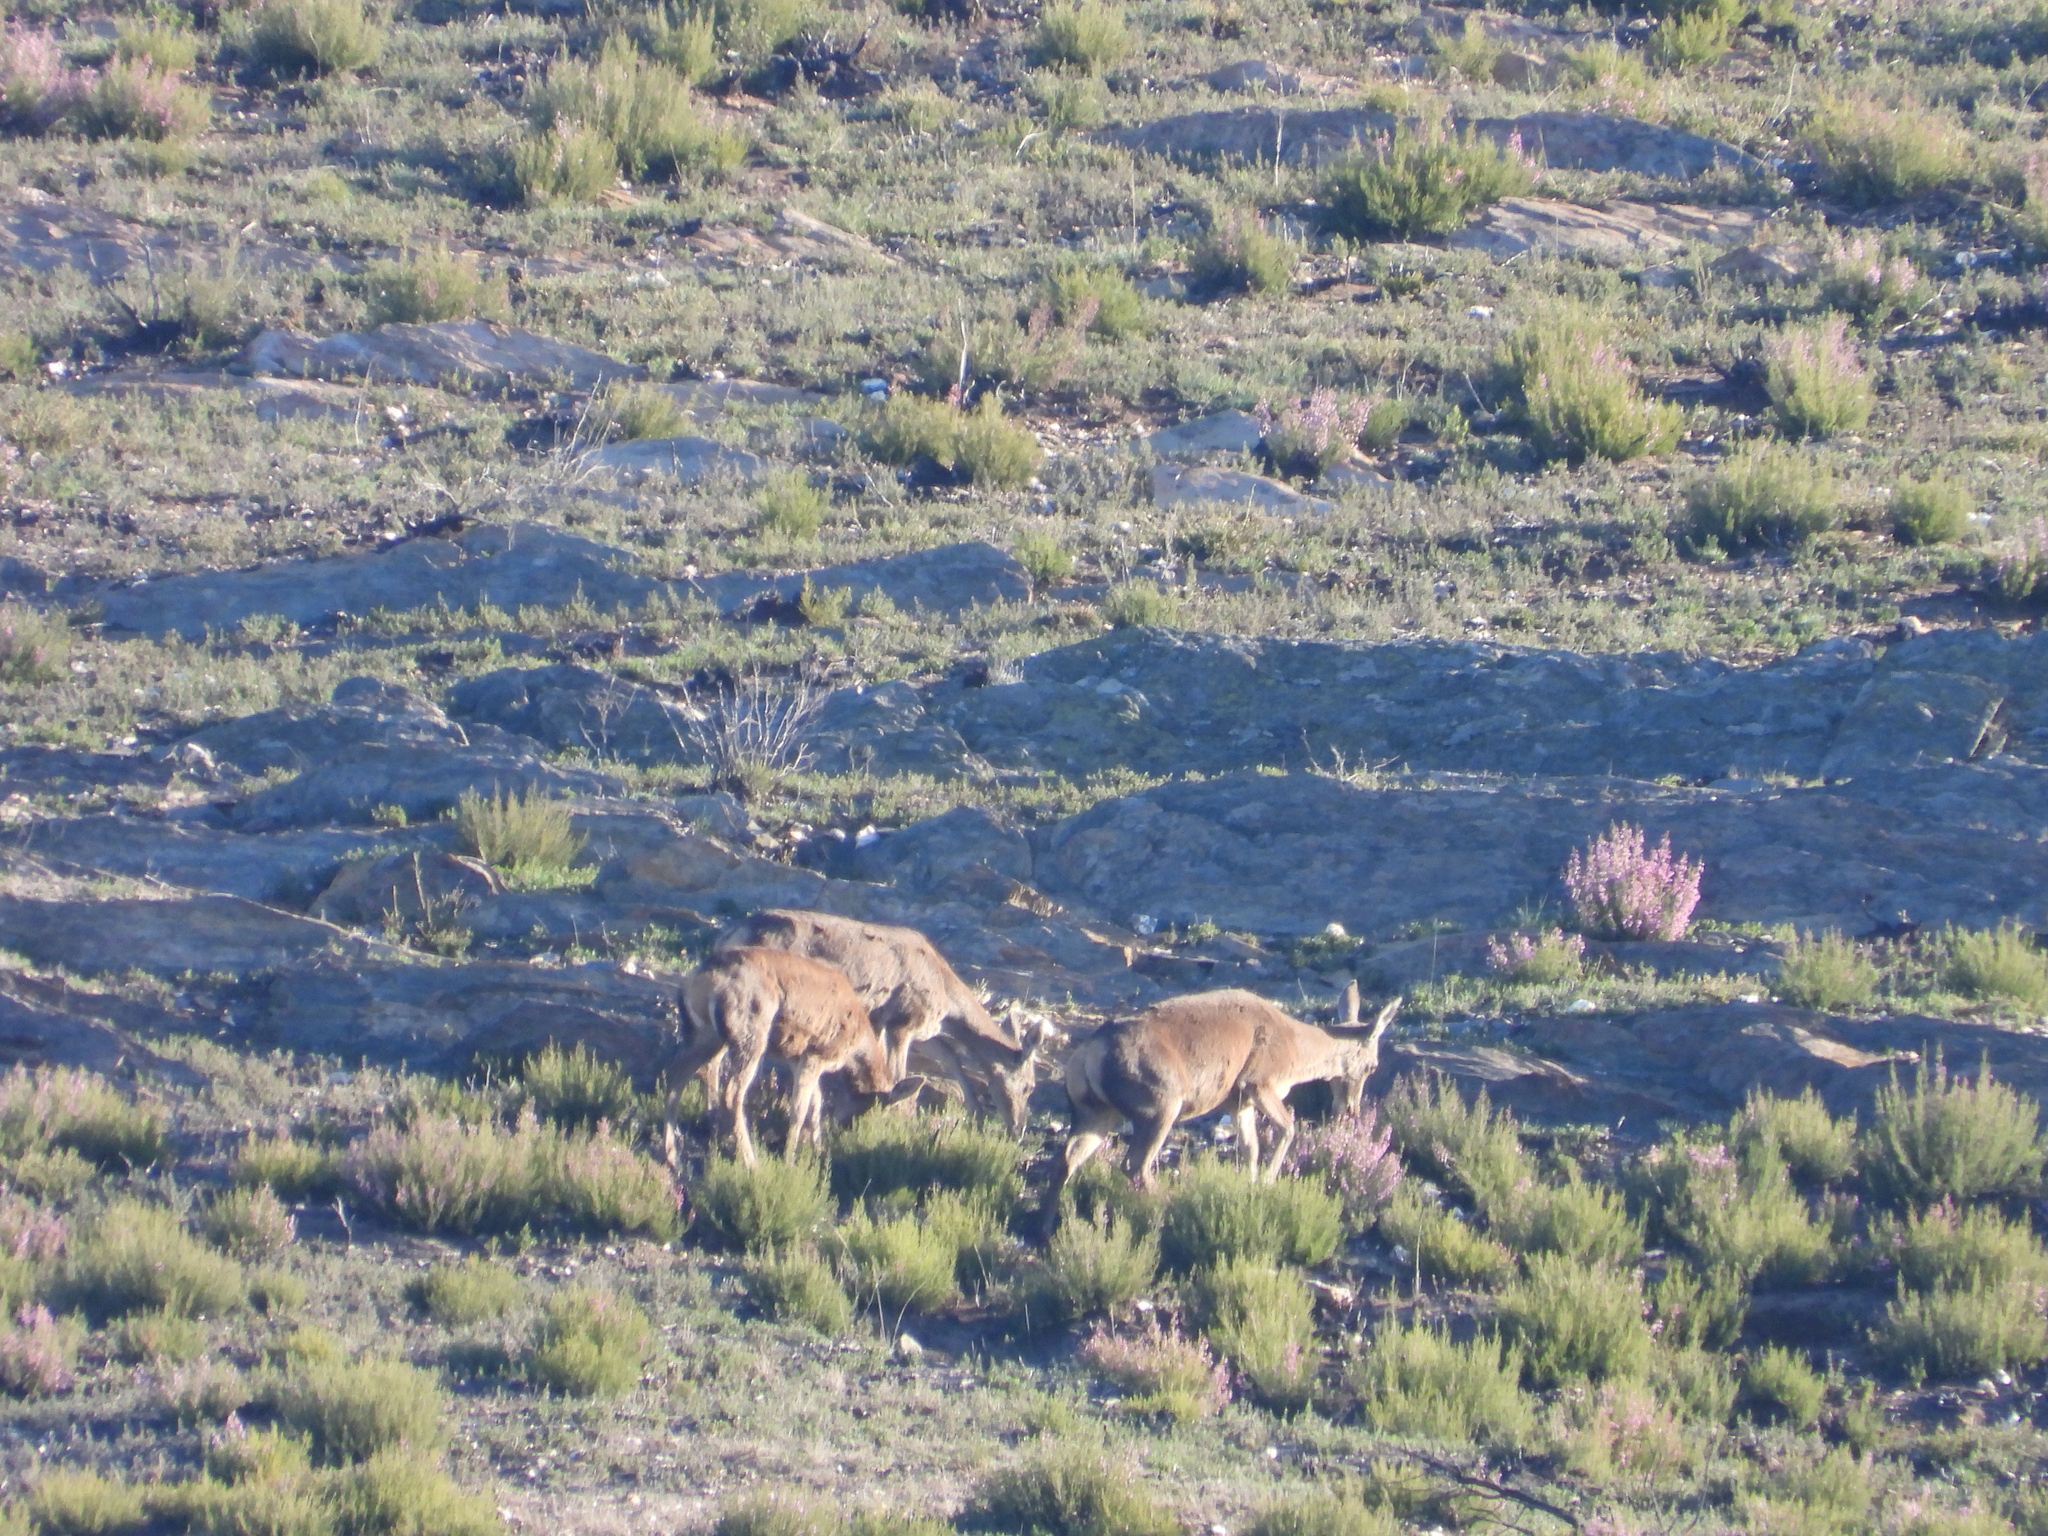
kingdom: Animalia
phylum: Chordata
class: Mammalia
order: Artiodactyla
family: Cervidae
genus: Cervus
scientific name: Cervus elaphus
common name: Red deer
